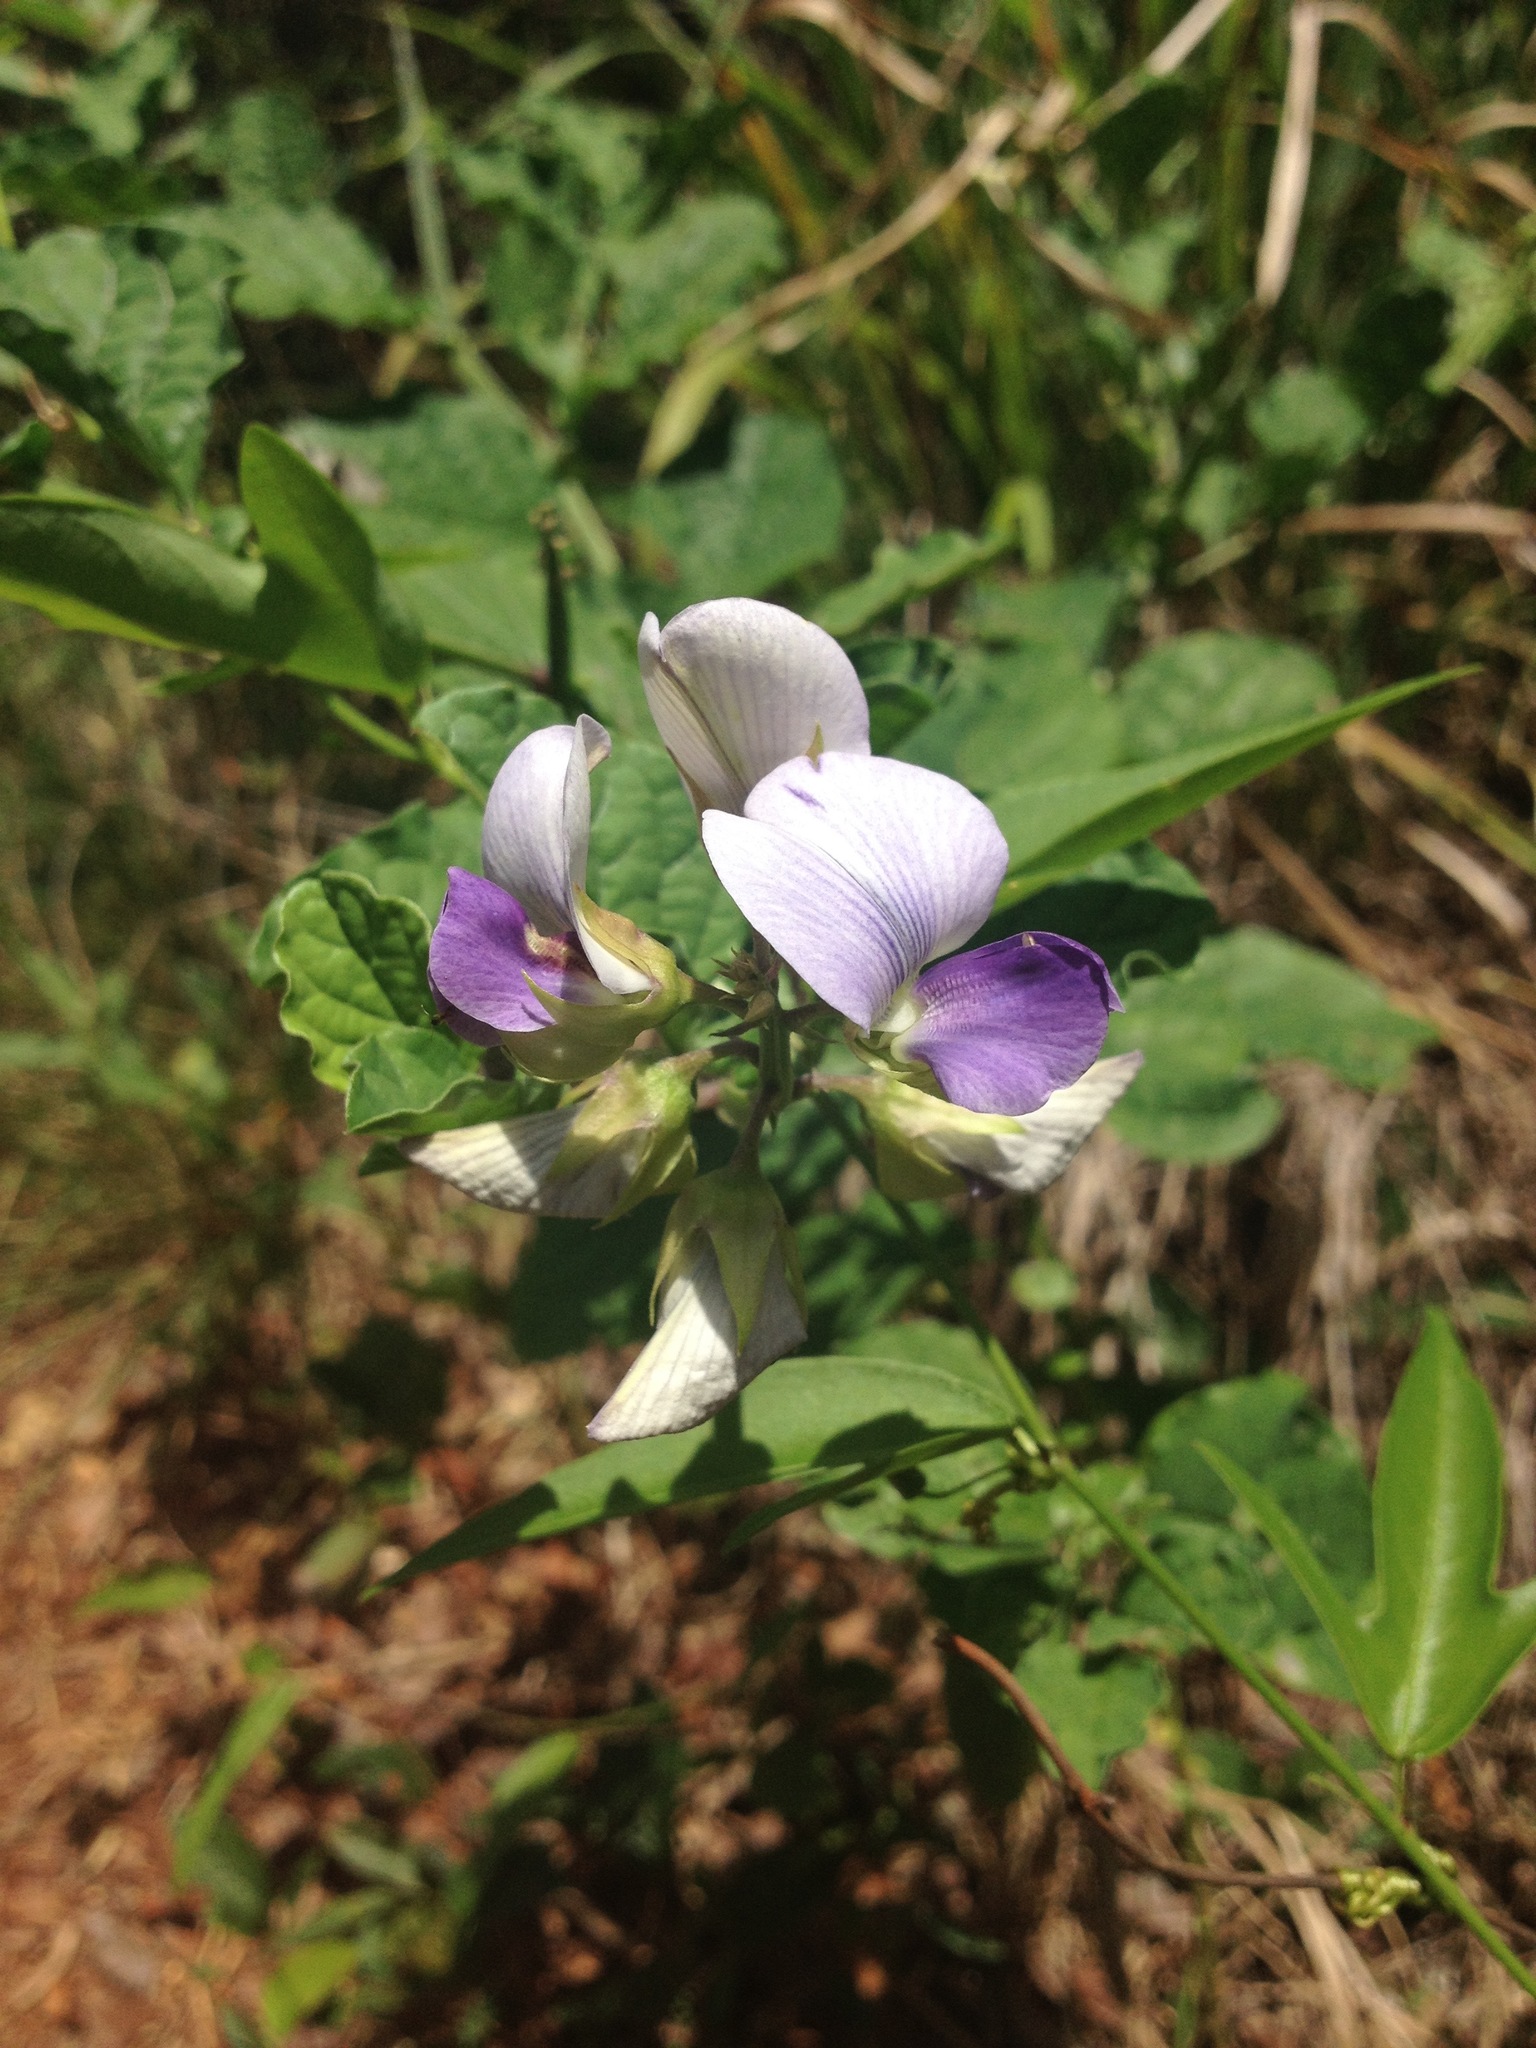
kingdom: Plantae
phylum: Tracheophyta
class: Magnoliopsida
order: Fabales
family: Fabaceae
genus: Crotalaria
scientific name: Crotalaria verrucosa
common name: Blue rattlesnake
